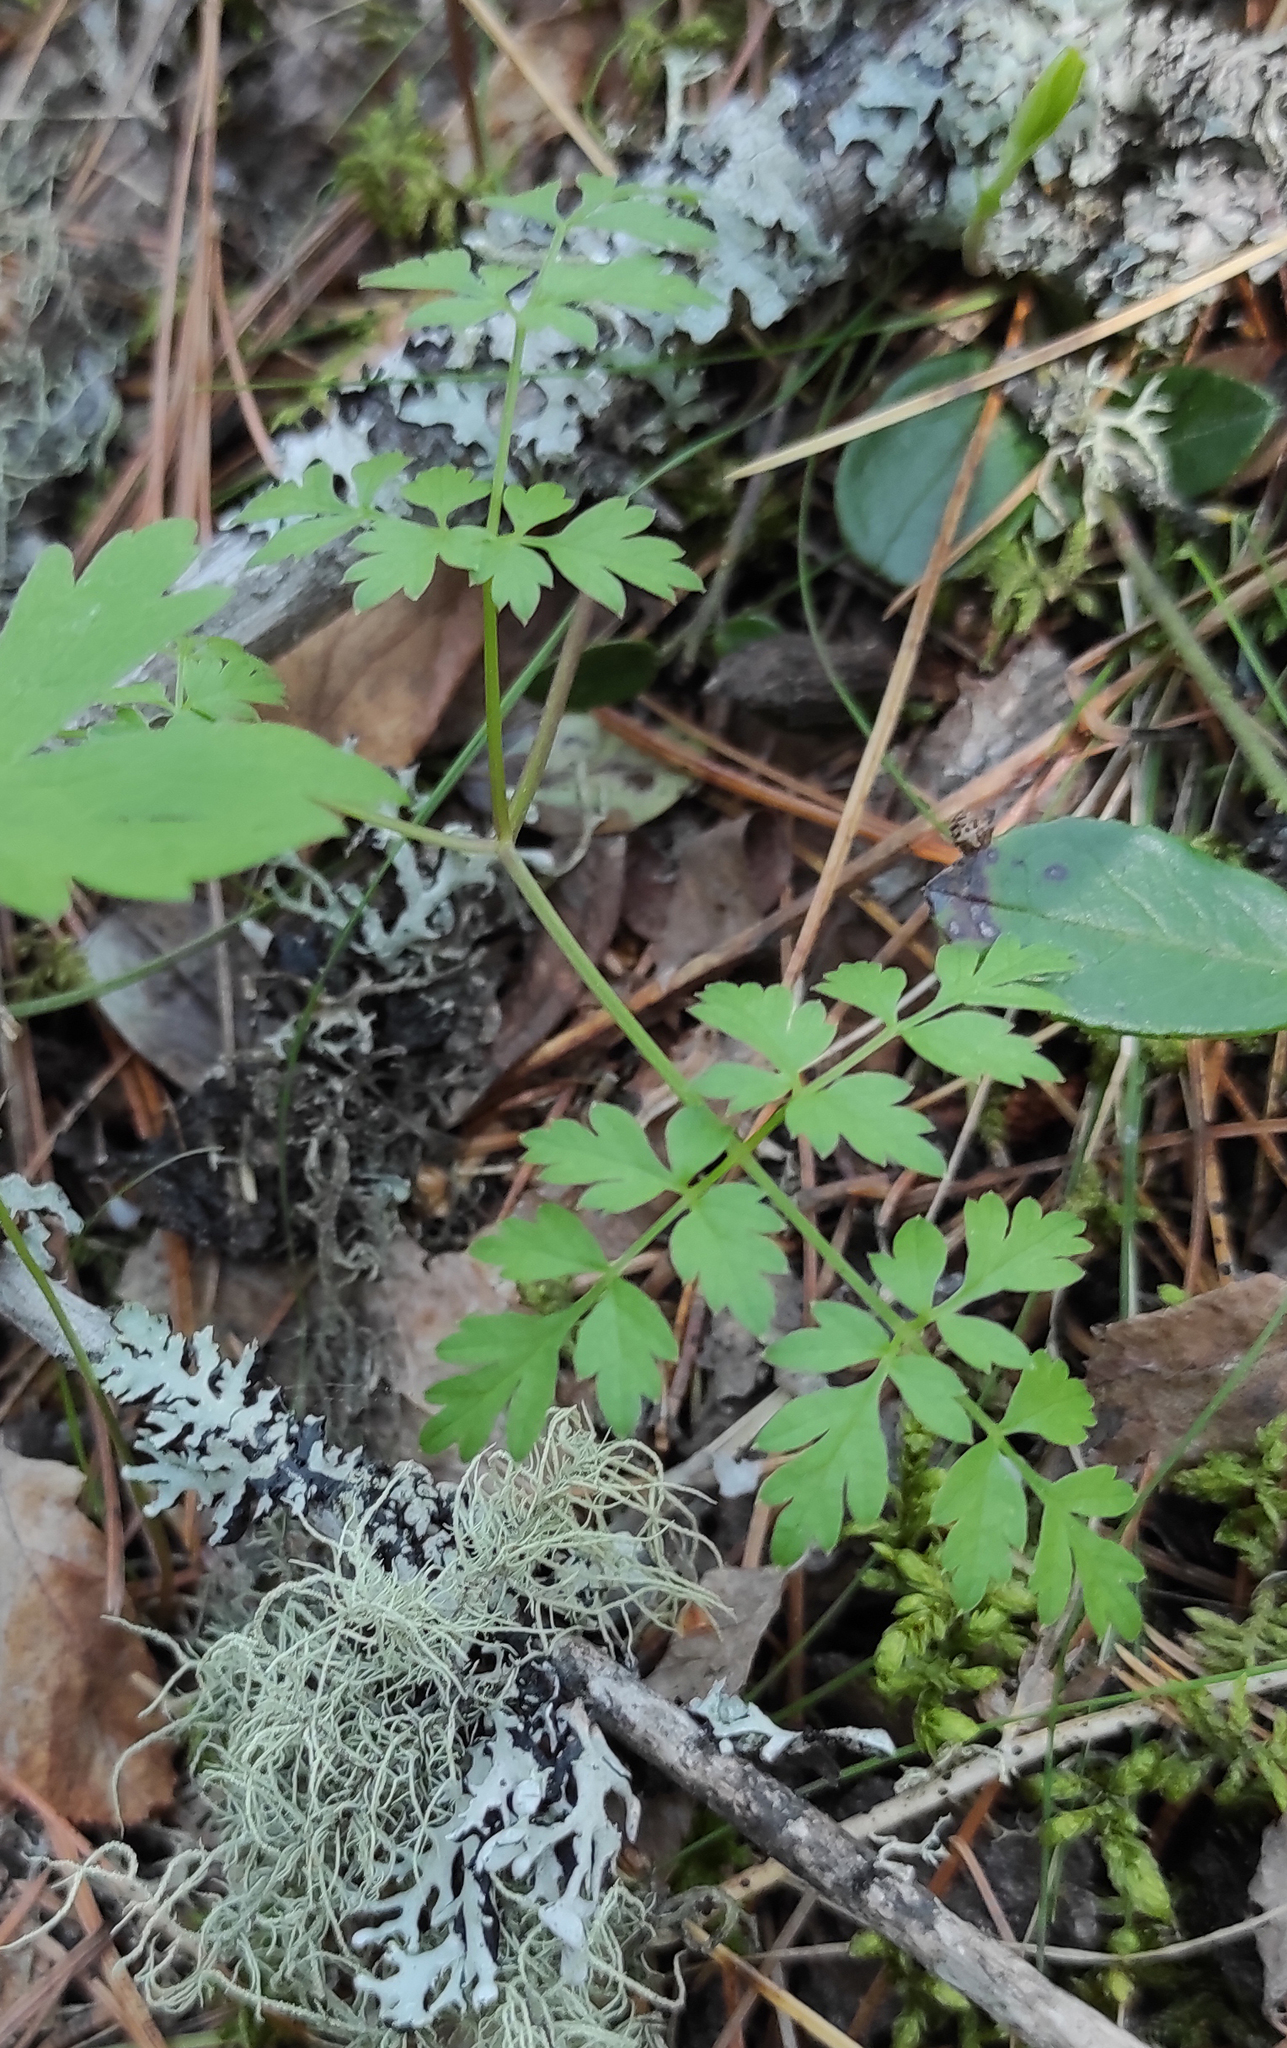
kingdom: Plantae
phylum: Tracheophyta
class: Magnoliopsida
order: Apiales
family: Apiaceae
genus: Aegopodium
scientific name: Aegopodium alpestre
